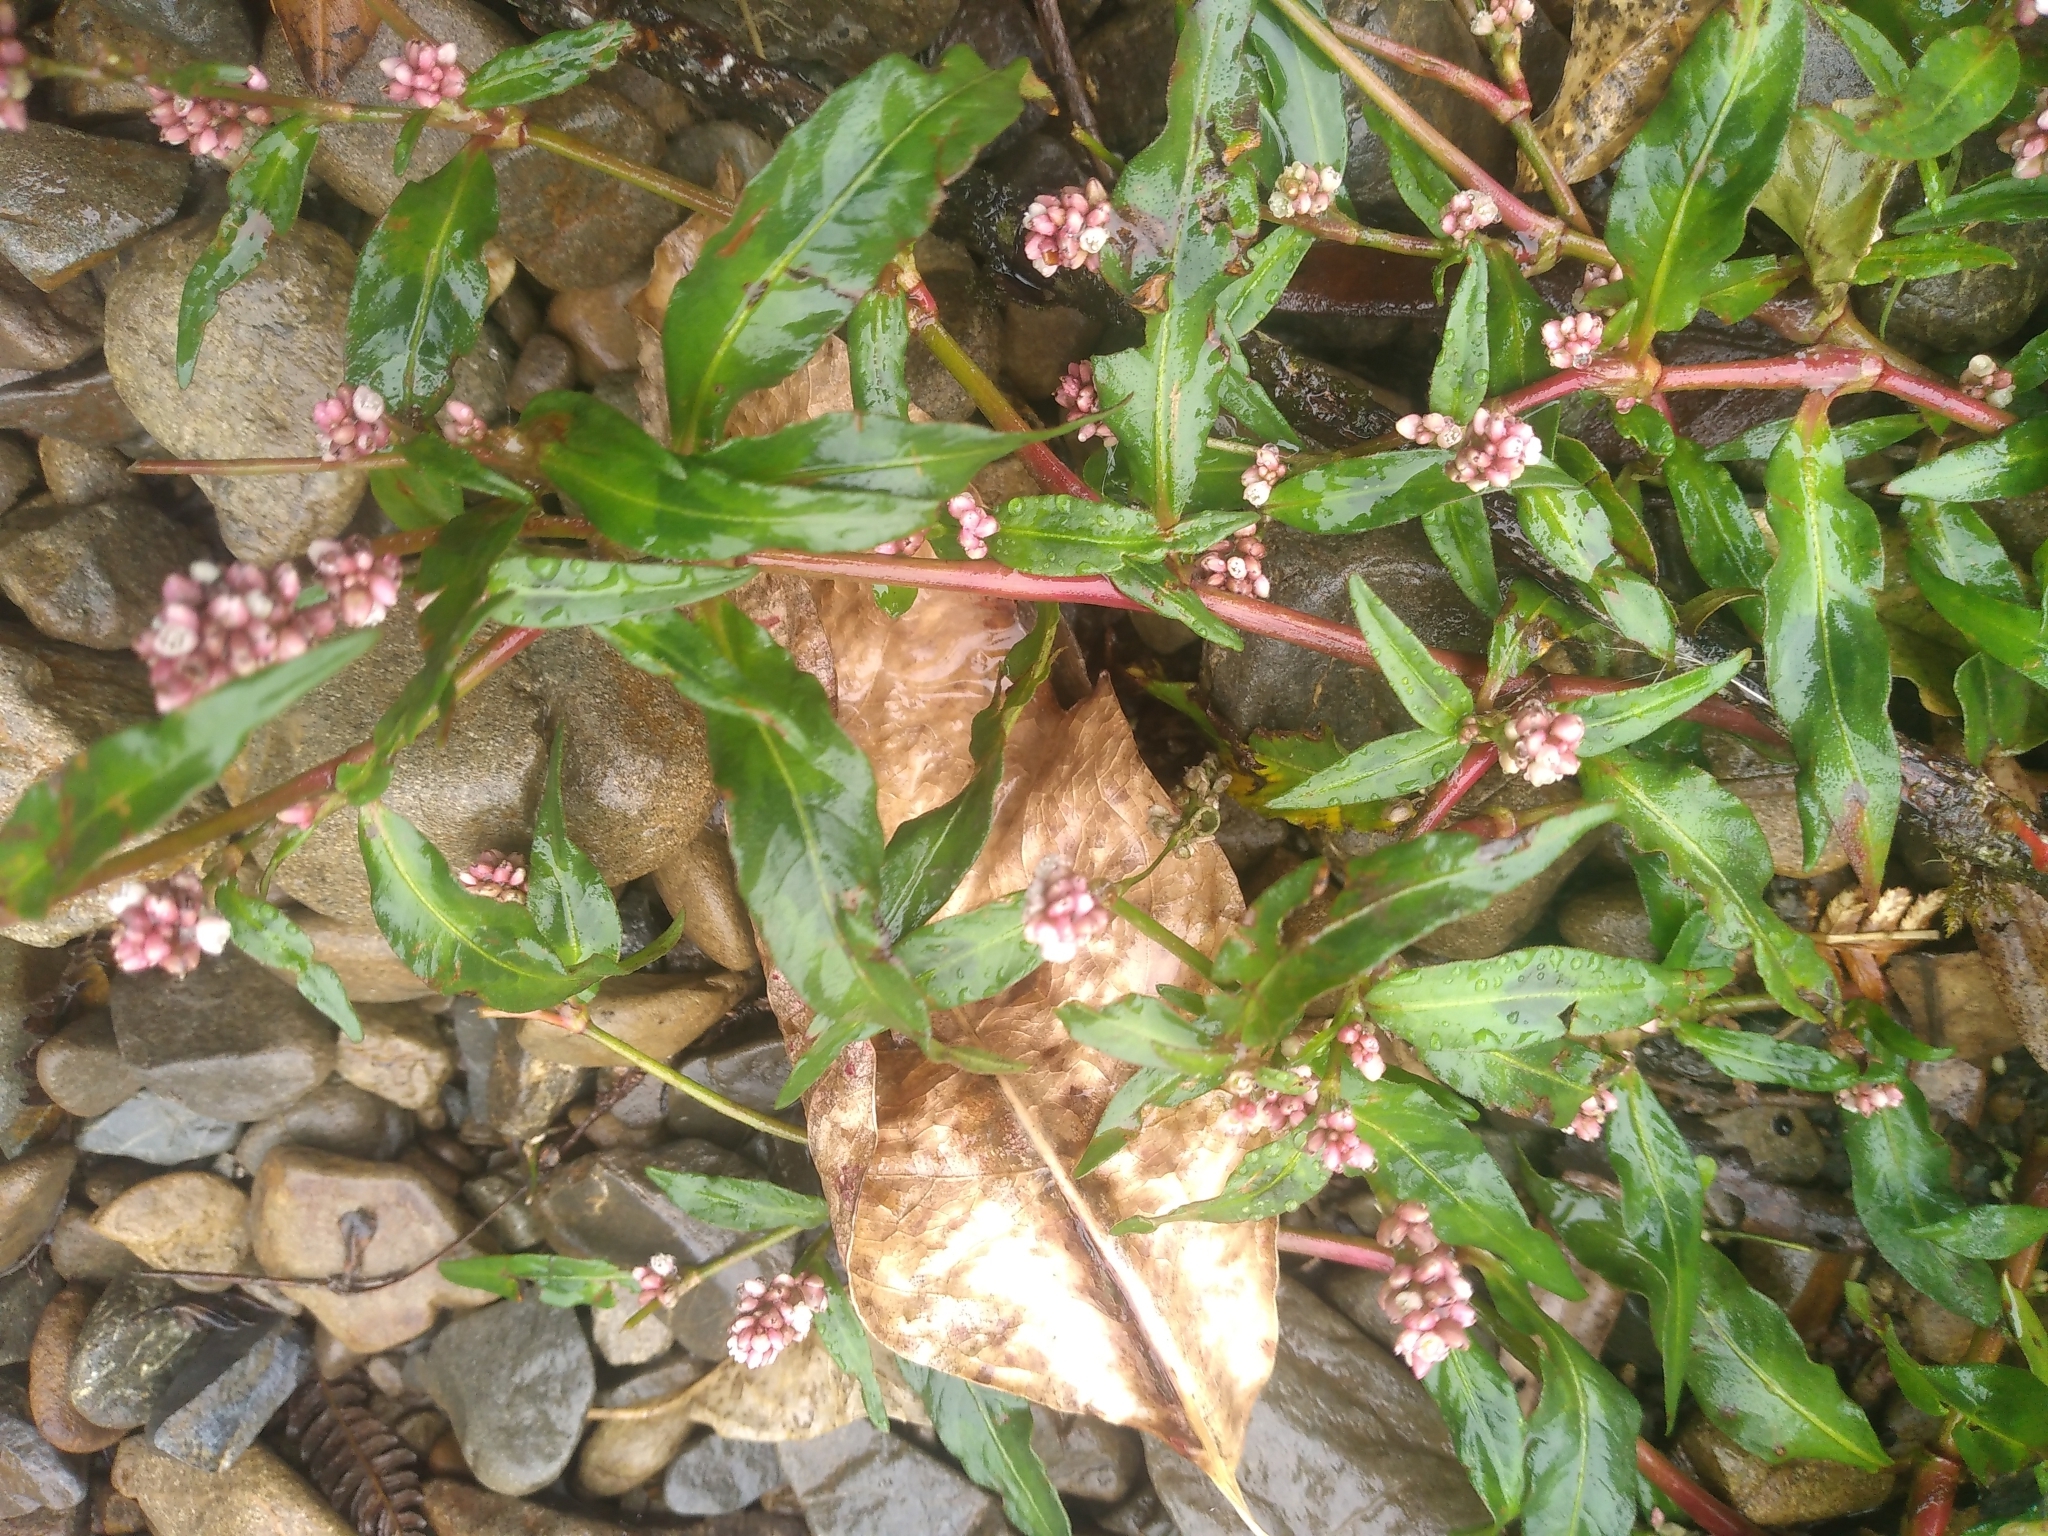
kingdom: Plantae
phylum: Tracheophyta
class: Magnoliopsida
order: Caryophyllales
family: Polygonaceae
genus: Persicaria
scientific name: Persicaria maculosa
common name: Redshank
